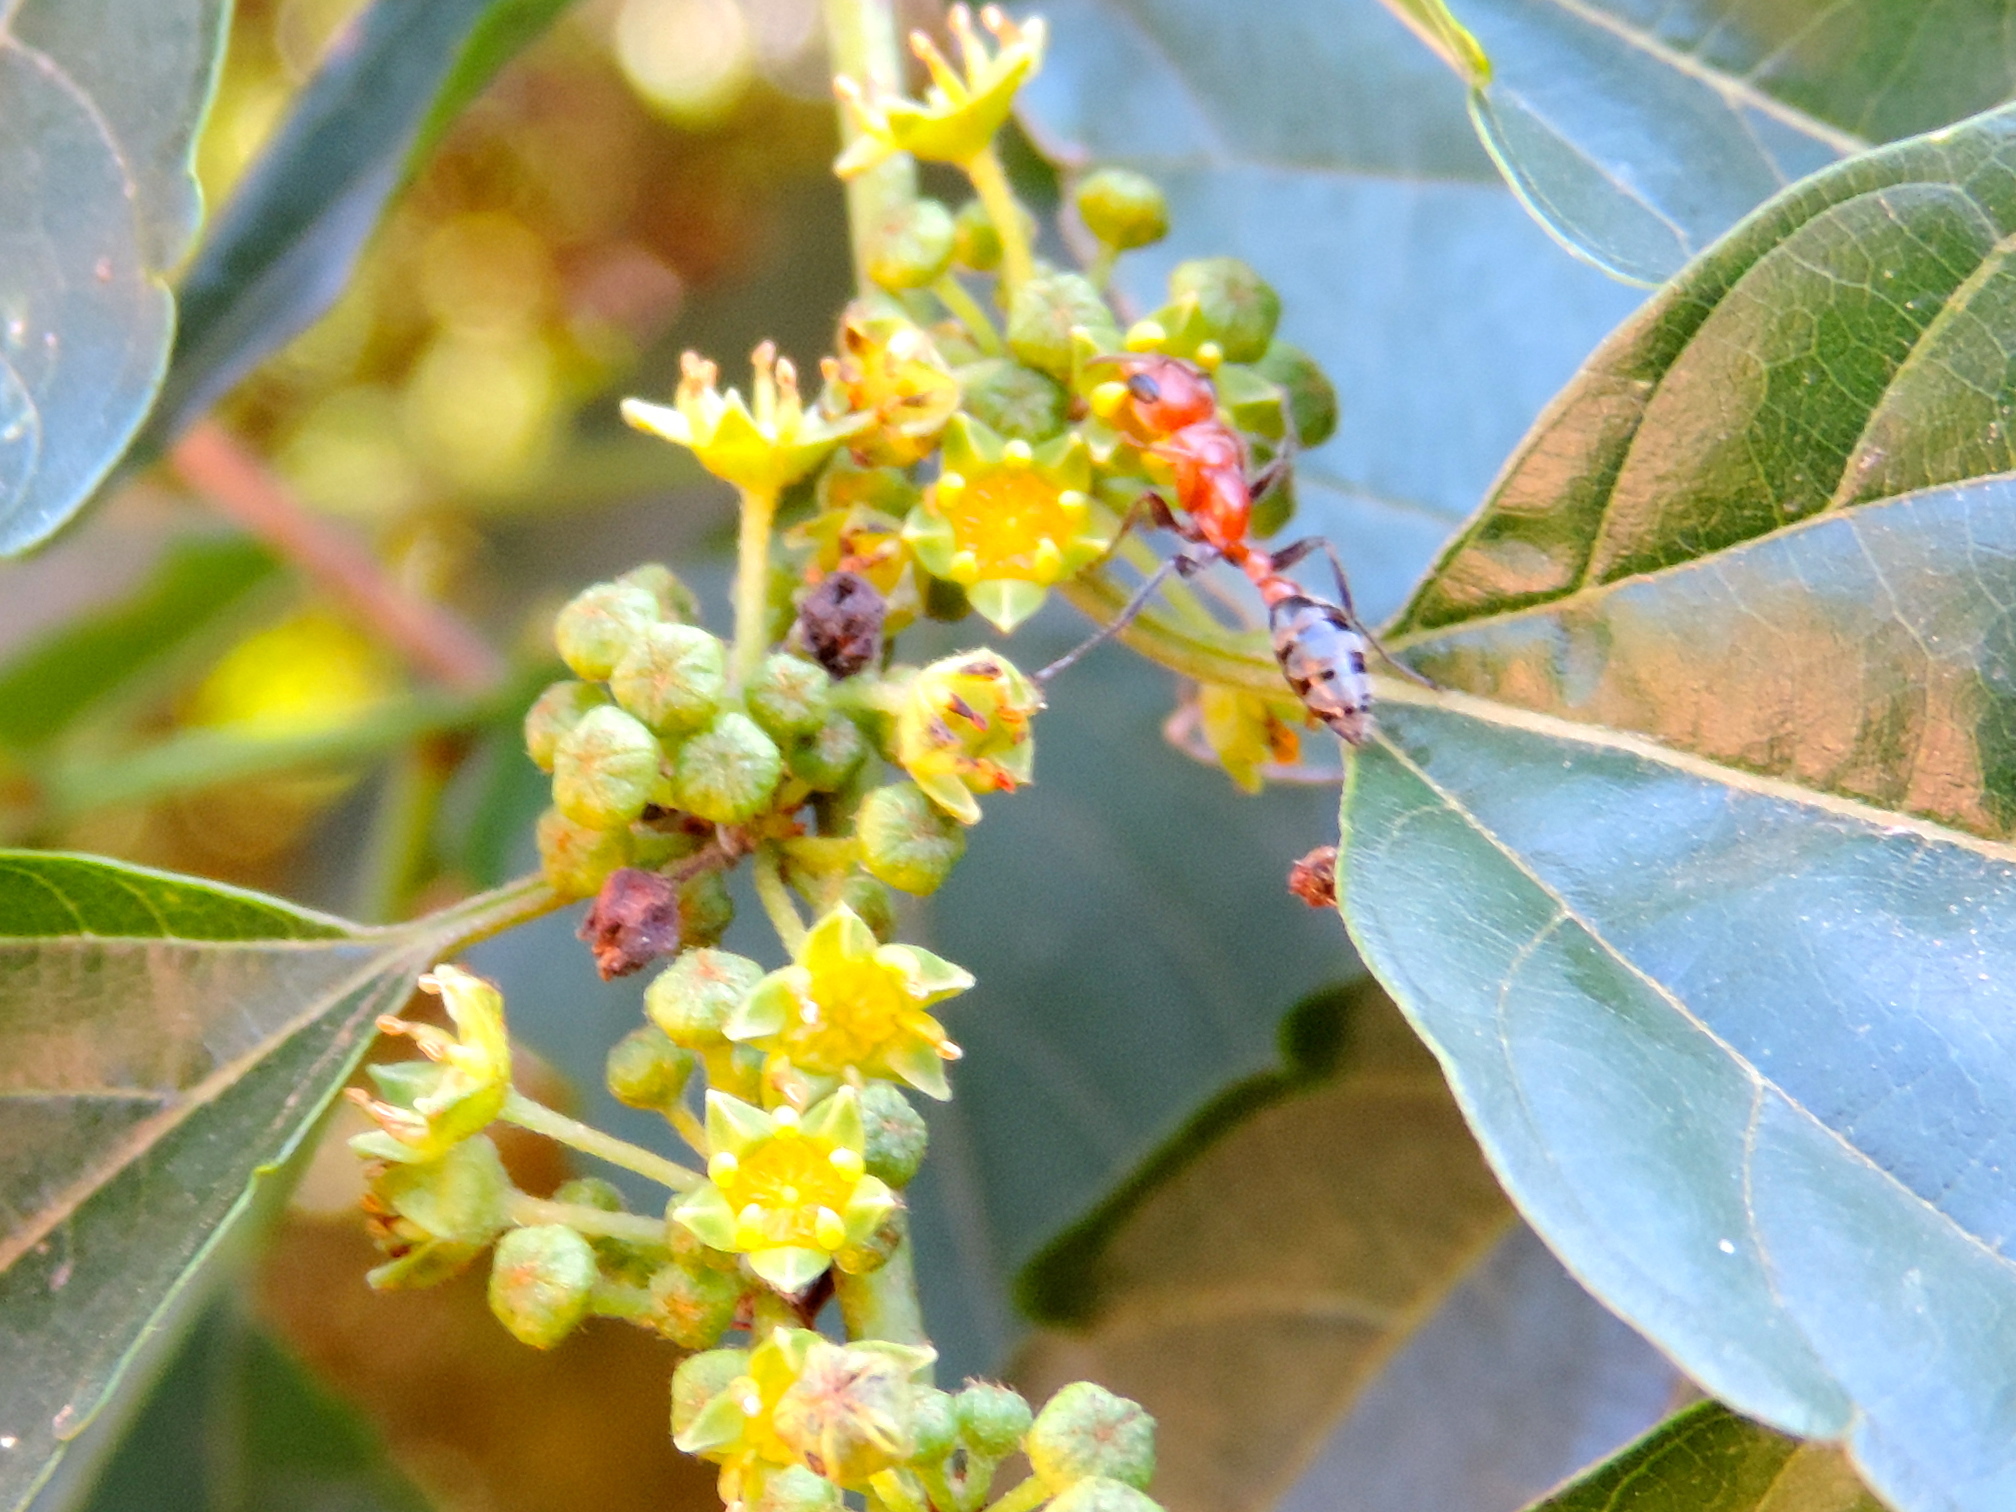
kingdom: Animalia
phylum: Arthropoda
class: Insecta
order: Hymenoptera
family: Formicidae
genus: Pseudomyrmex
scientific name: Pseudomyrmex
